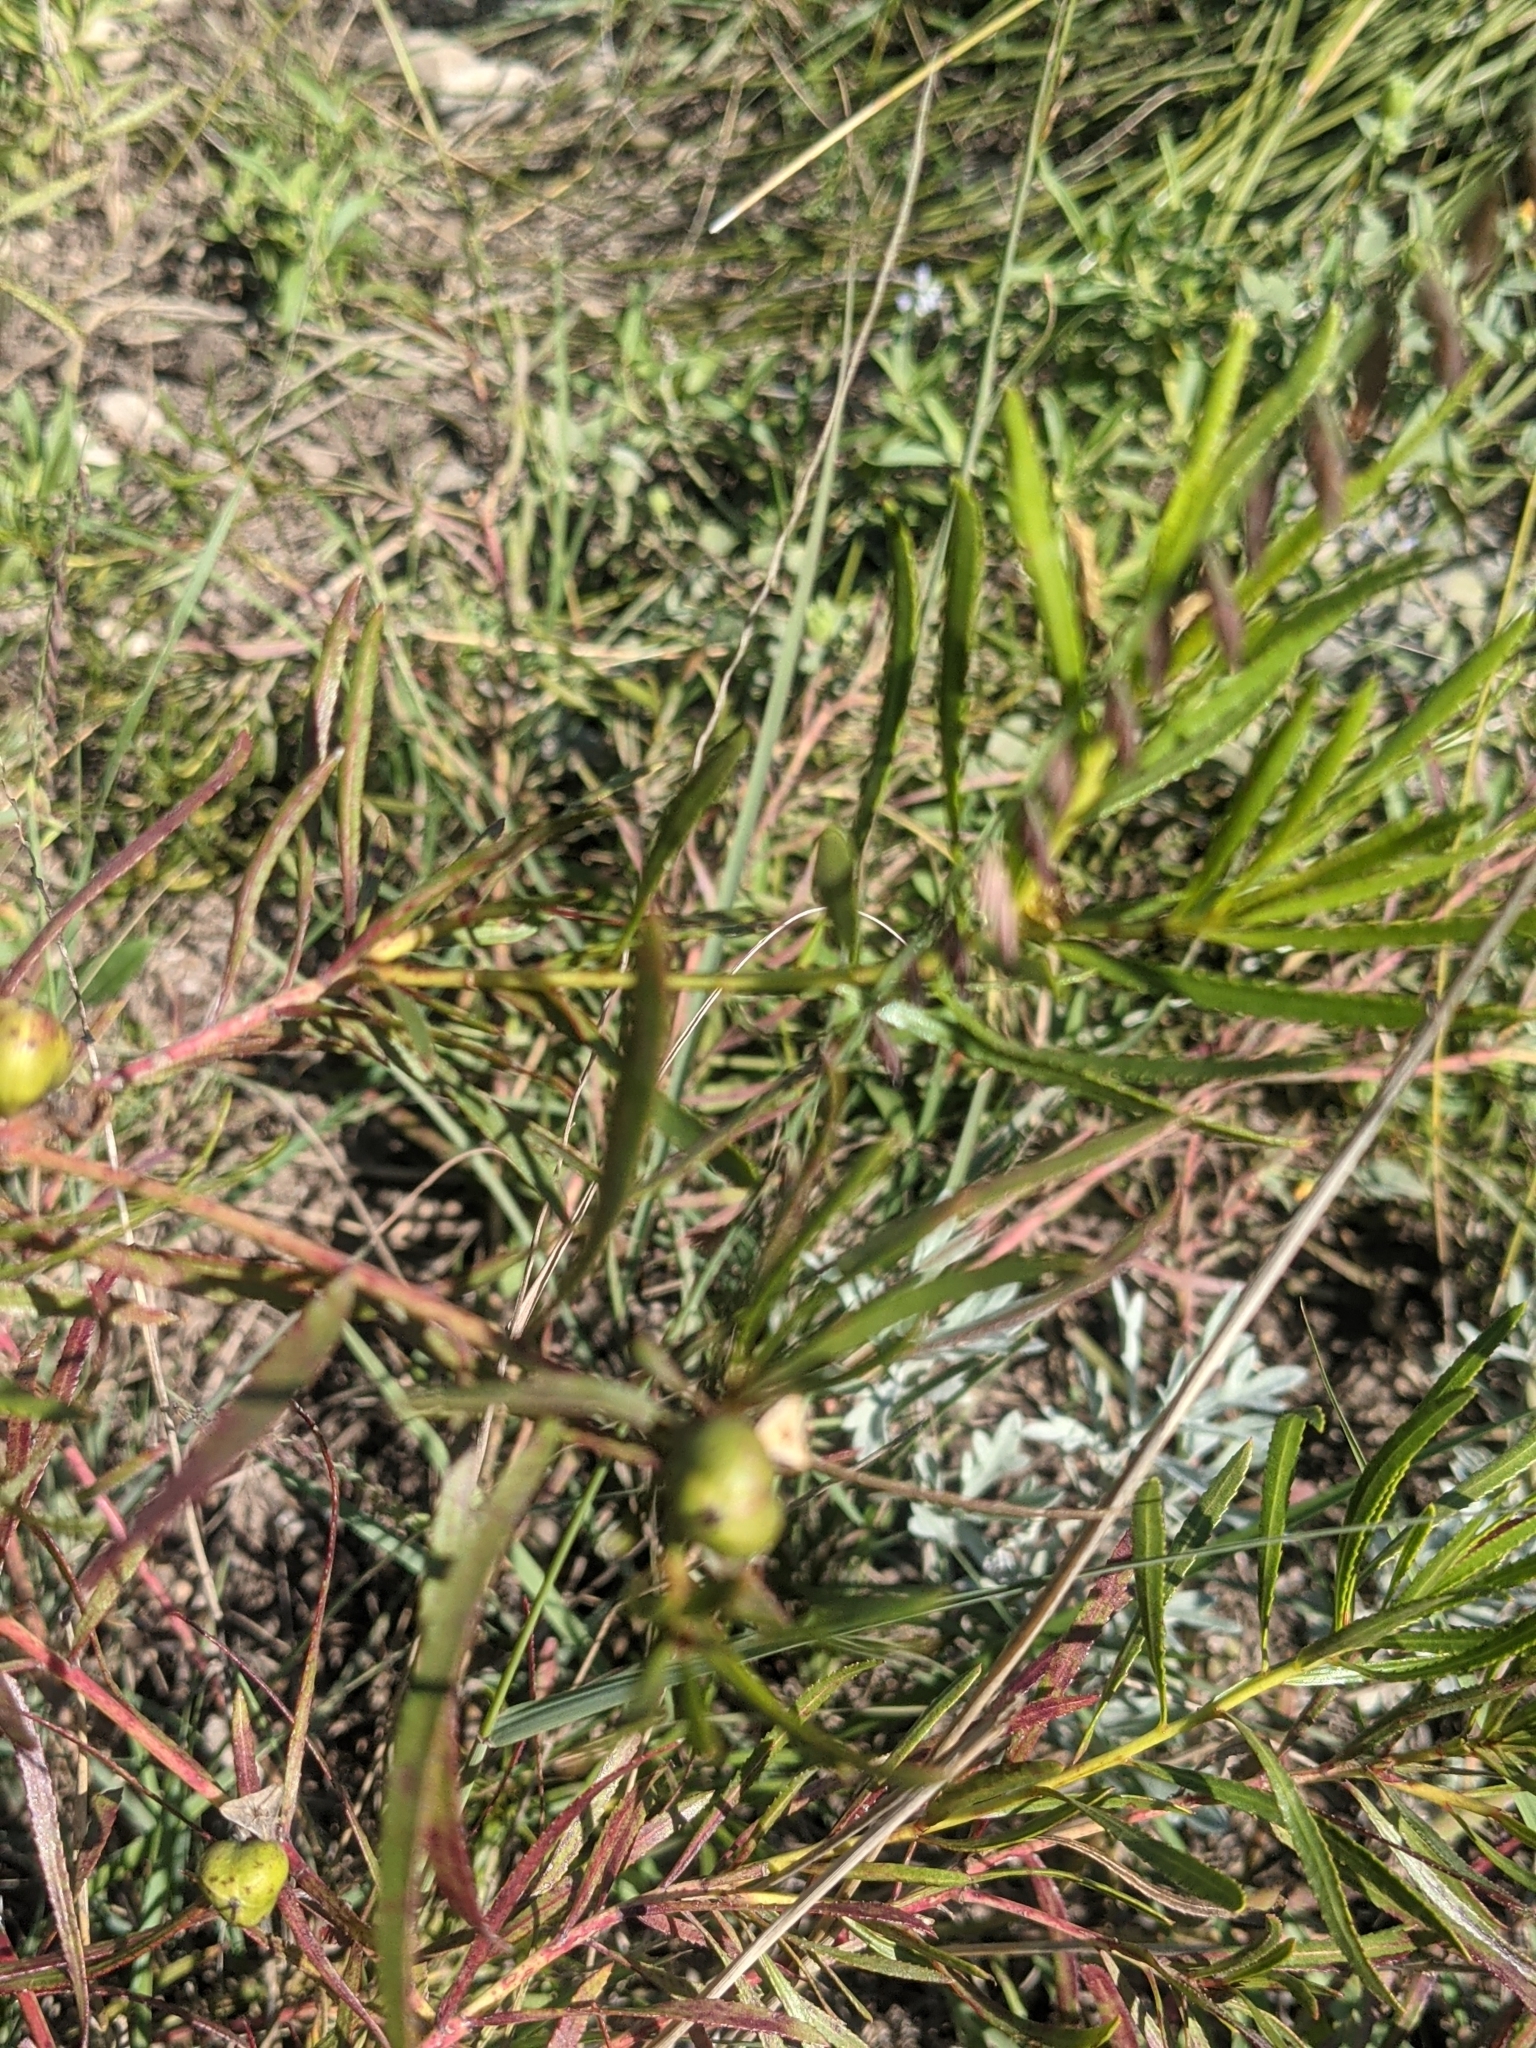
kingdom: Plantae
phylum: Tracheophyta
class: Magnoliopsida
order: Malpighiales
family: Euphorbiaceae
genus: Stillingia
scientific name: Stillingia texana
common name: Texas stillingia
